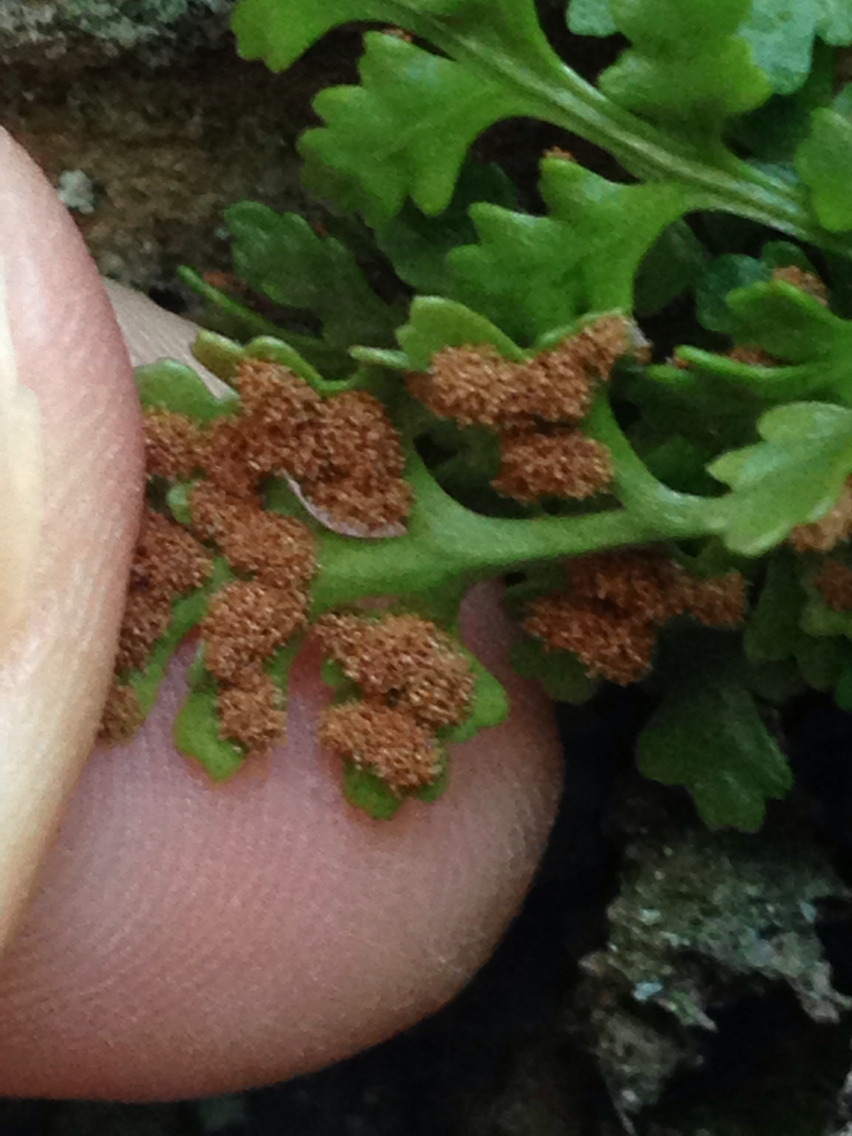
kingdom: Plantae
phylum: Tracheophyta
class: Polypodiopsida
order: Polypodiales
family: Aspleniaceae
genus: Asplenium
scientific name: Asplenium montanum
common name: Mountain spleenwort
